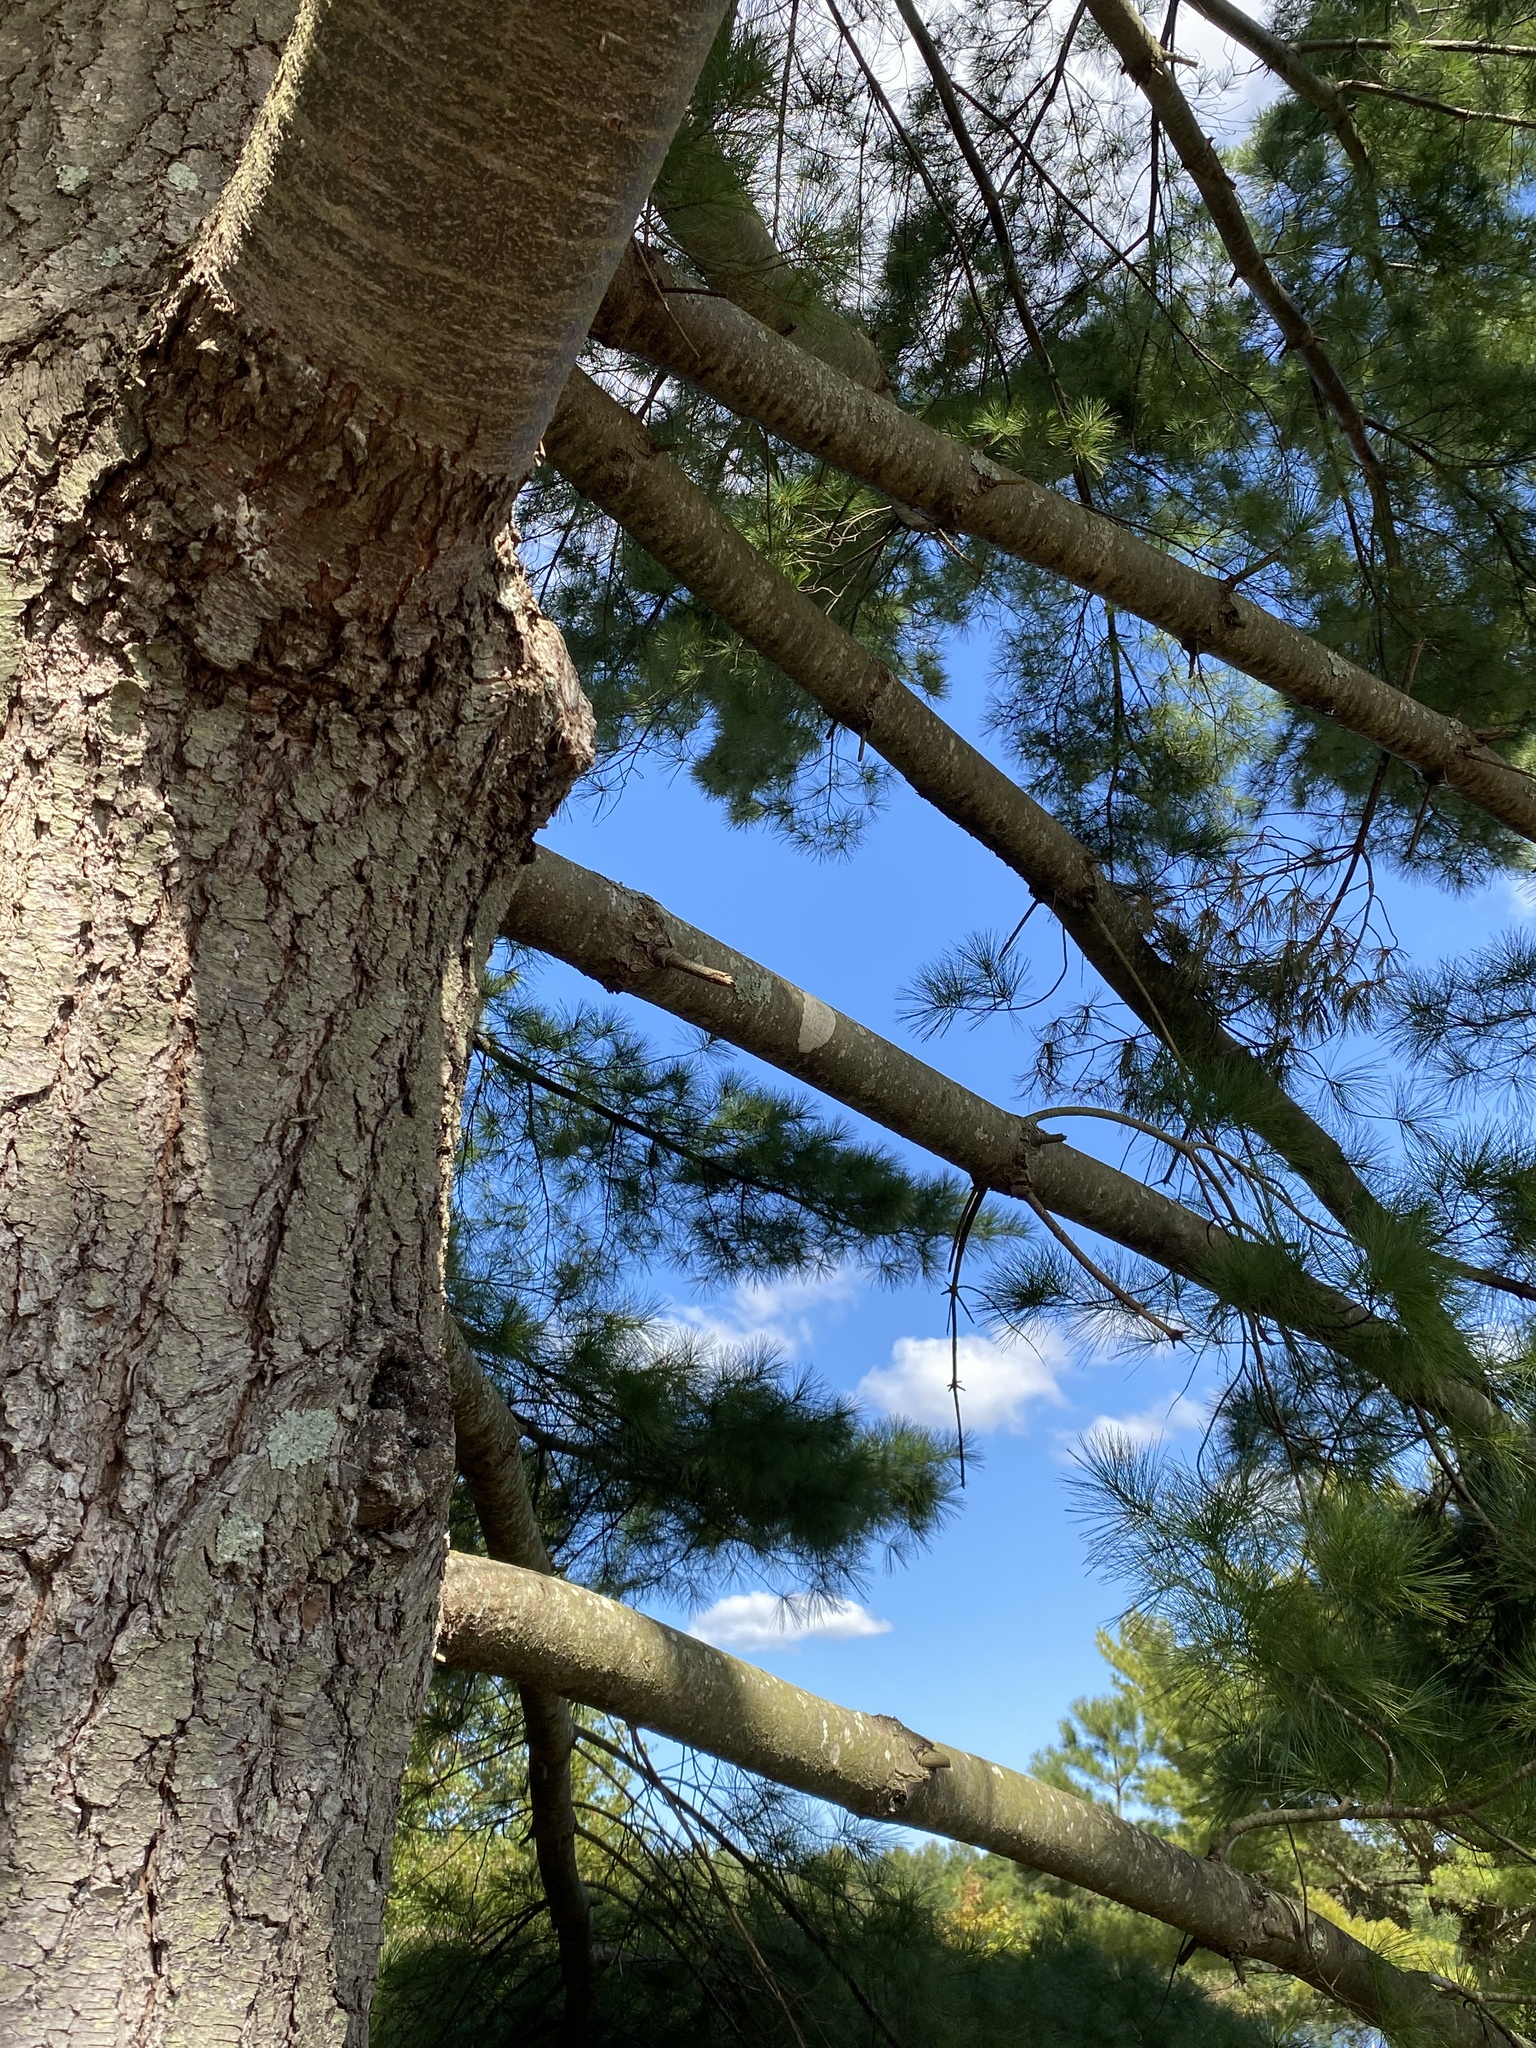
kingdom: Plantae
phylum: Tracheophyta
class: Pinopsida
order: Pinales
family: Pinaceae
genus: Pinus
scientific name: Pinus strobus
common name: Weymouth pine
